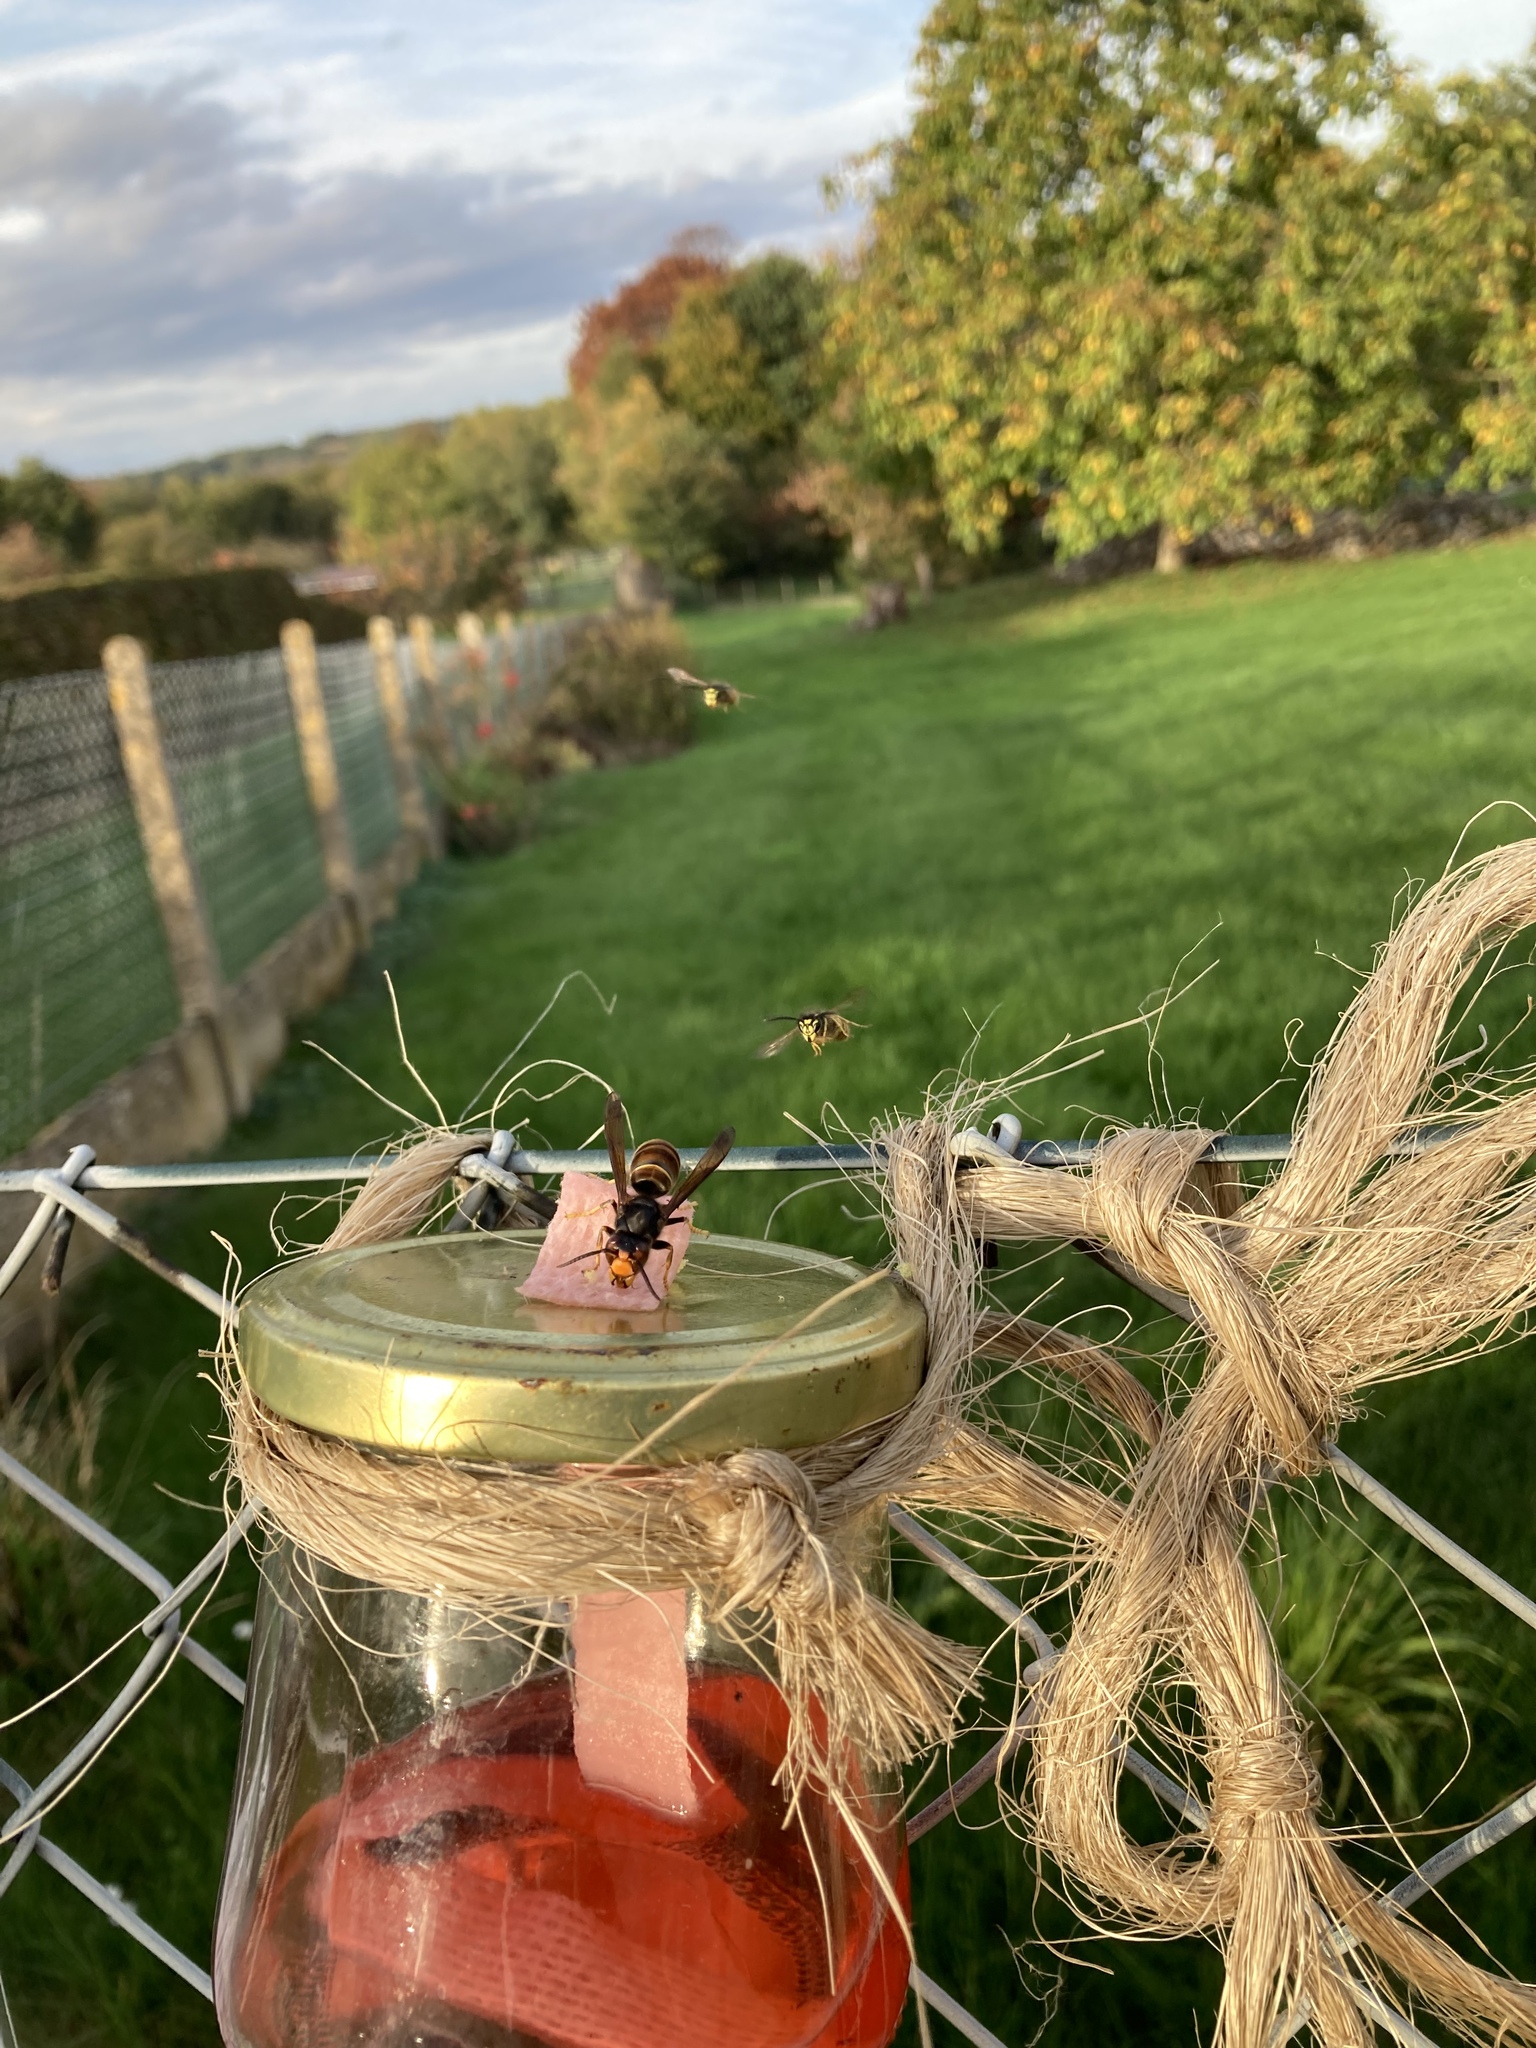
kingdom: Animalia
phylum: Arthropoda
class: Insecta
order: Hymenoptera
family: Vespidae
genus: Vespa
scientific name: Vespa velutina
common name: Asian hornet
